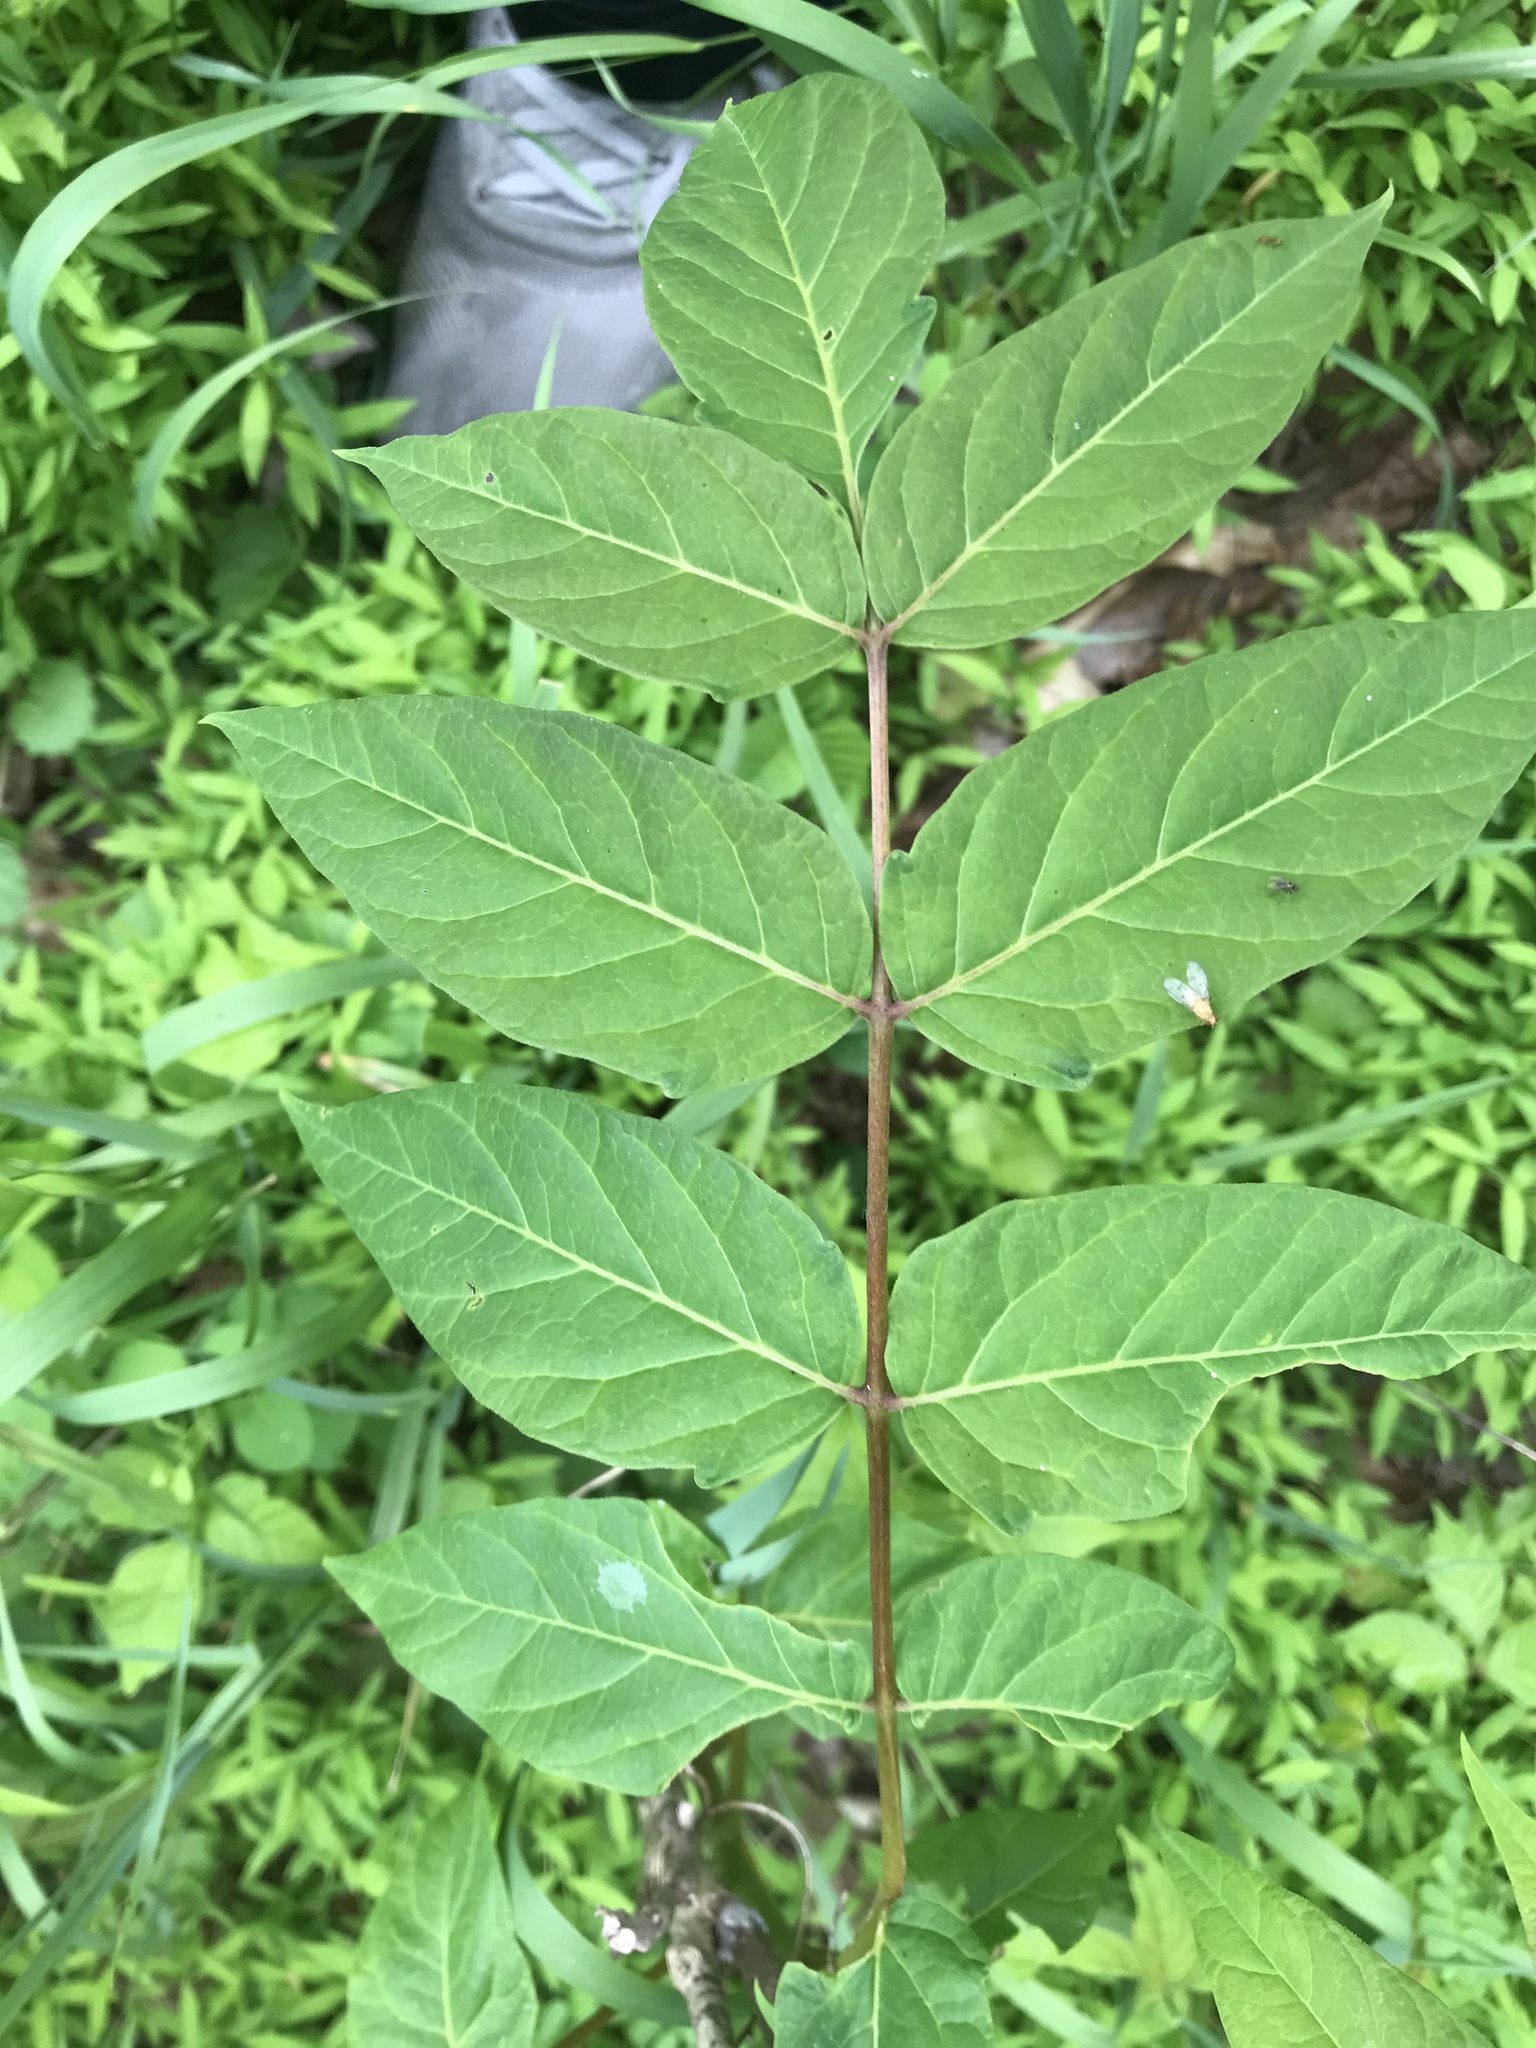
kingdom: Plantae
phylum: Tracheophyta
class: Magnoliopsida
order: Sapindales
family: Simaroubaceae
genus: Ailanthus
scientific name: Ailanthus altissima
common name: Tree-of-heaven
